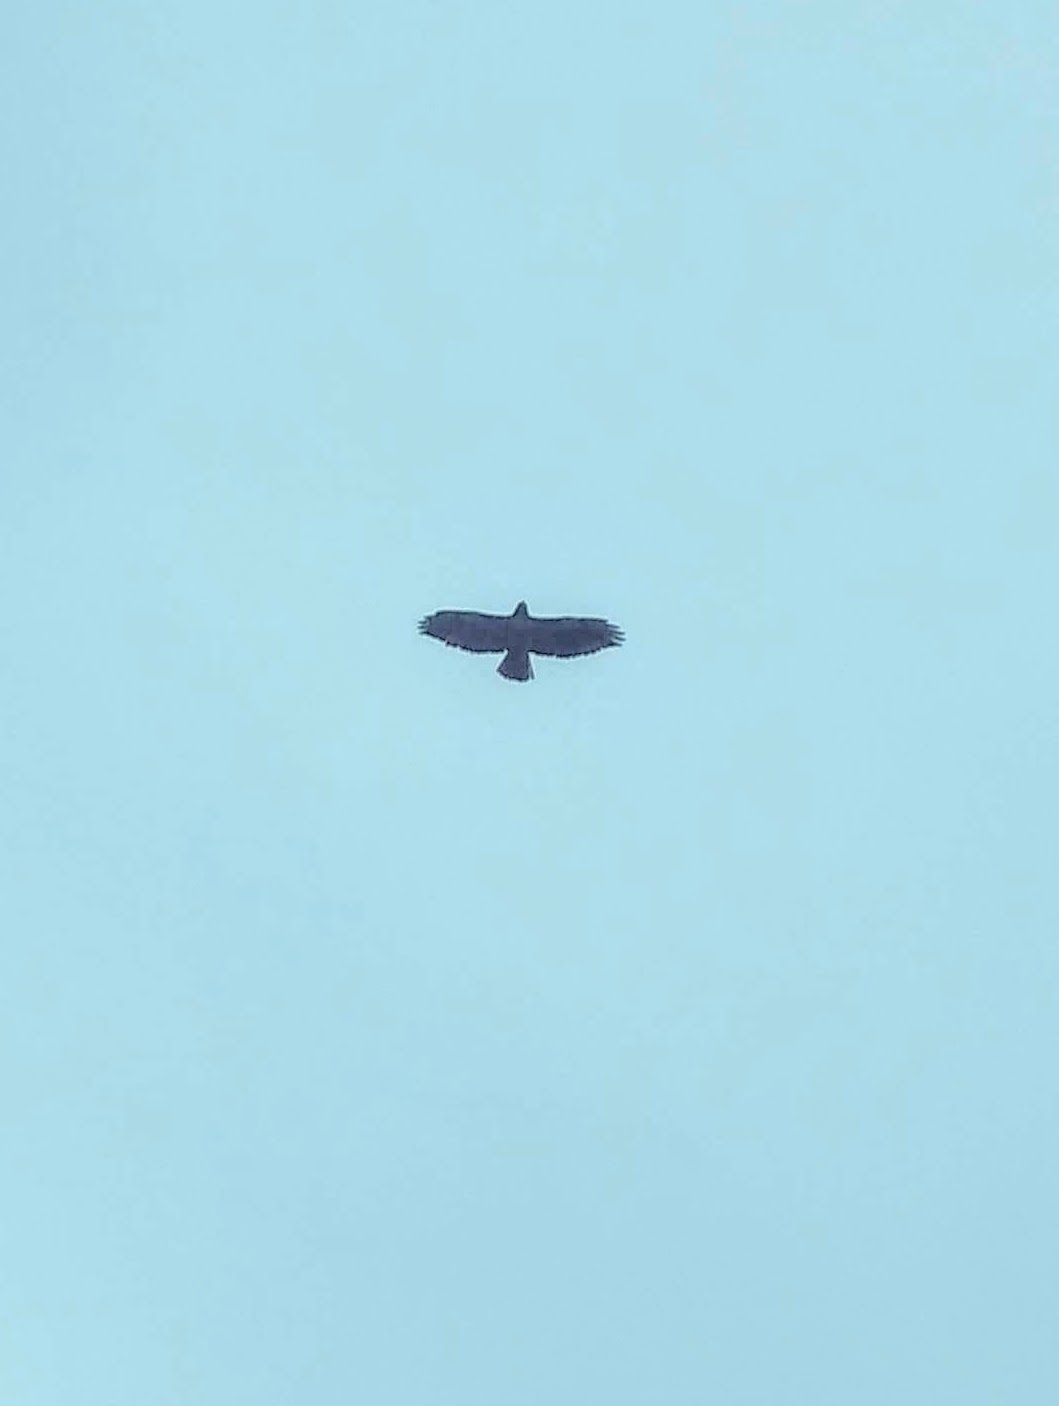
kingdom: Animalia
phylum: Chordata
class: Aves
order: Accipitriformes
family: Accipitridae
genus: Buteo
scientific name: Buteo jamaicensis
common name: Red-tailed hawk
